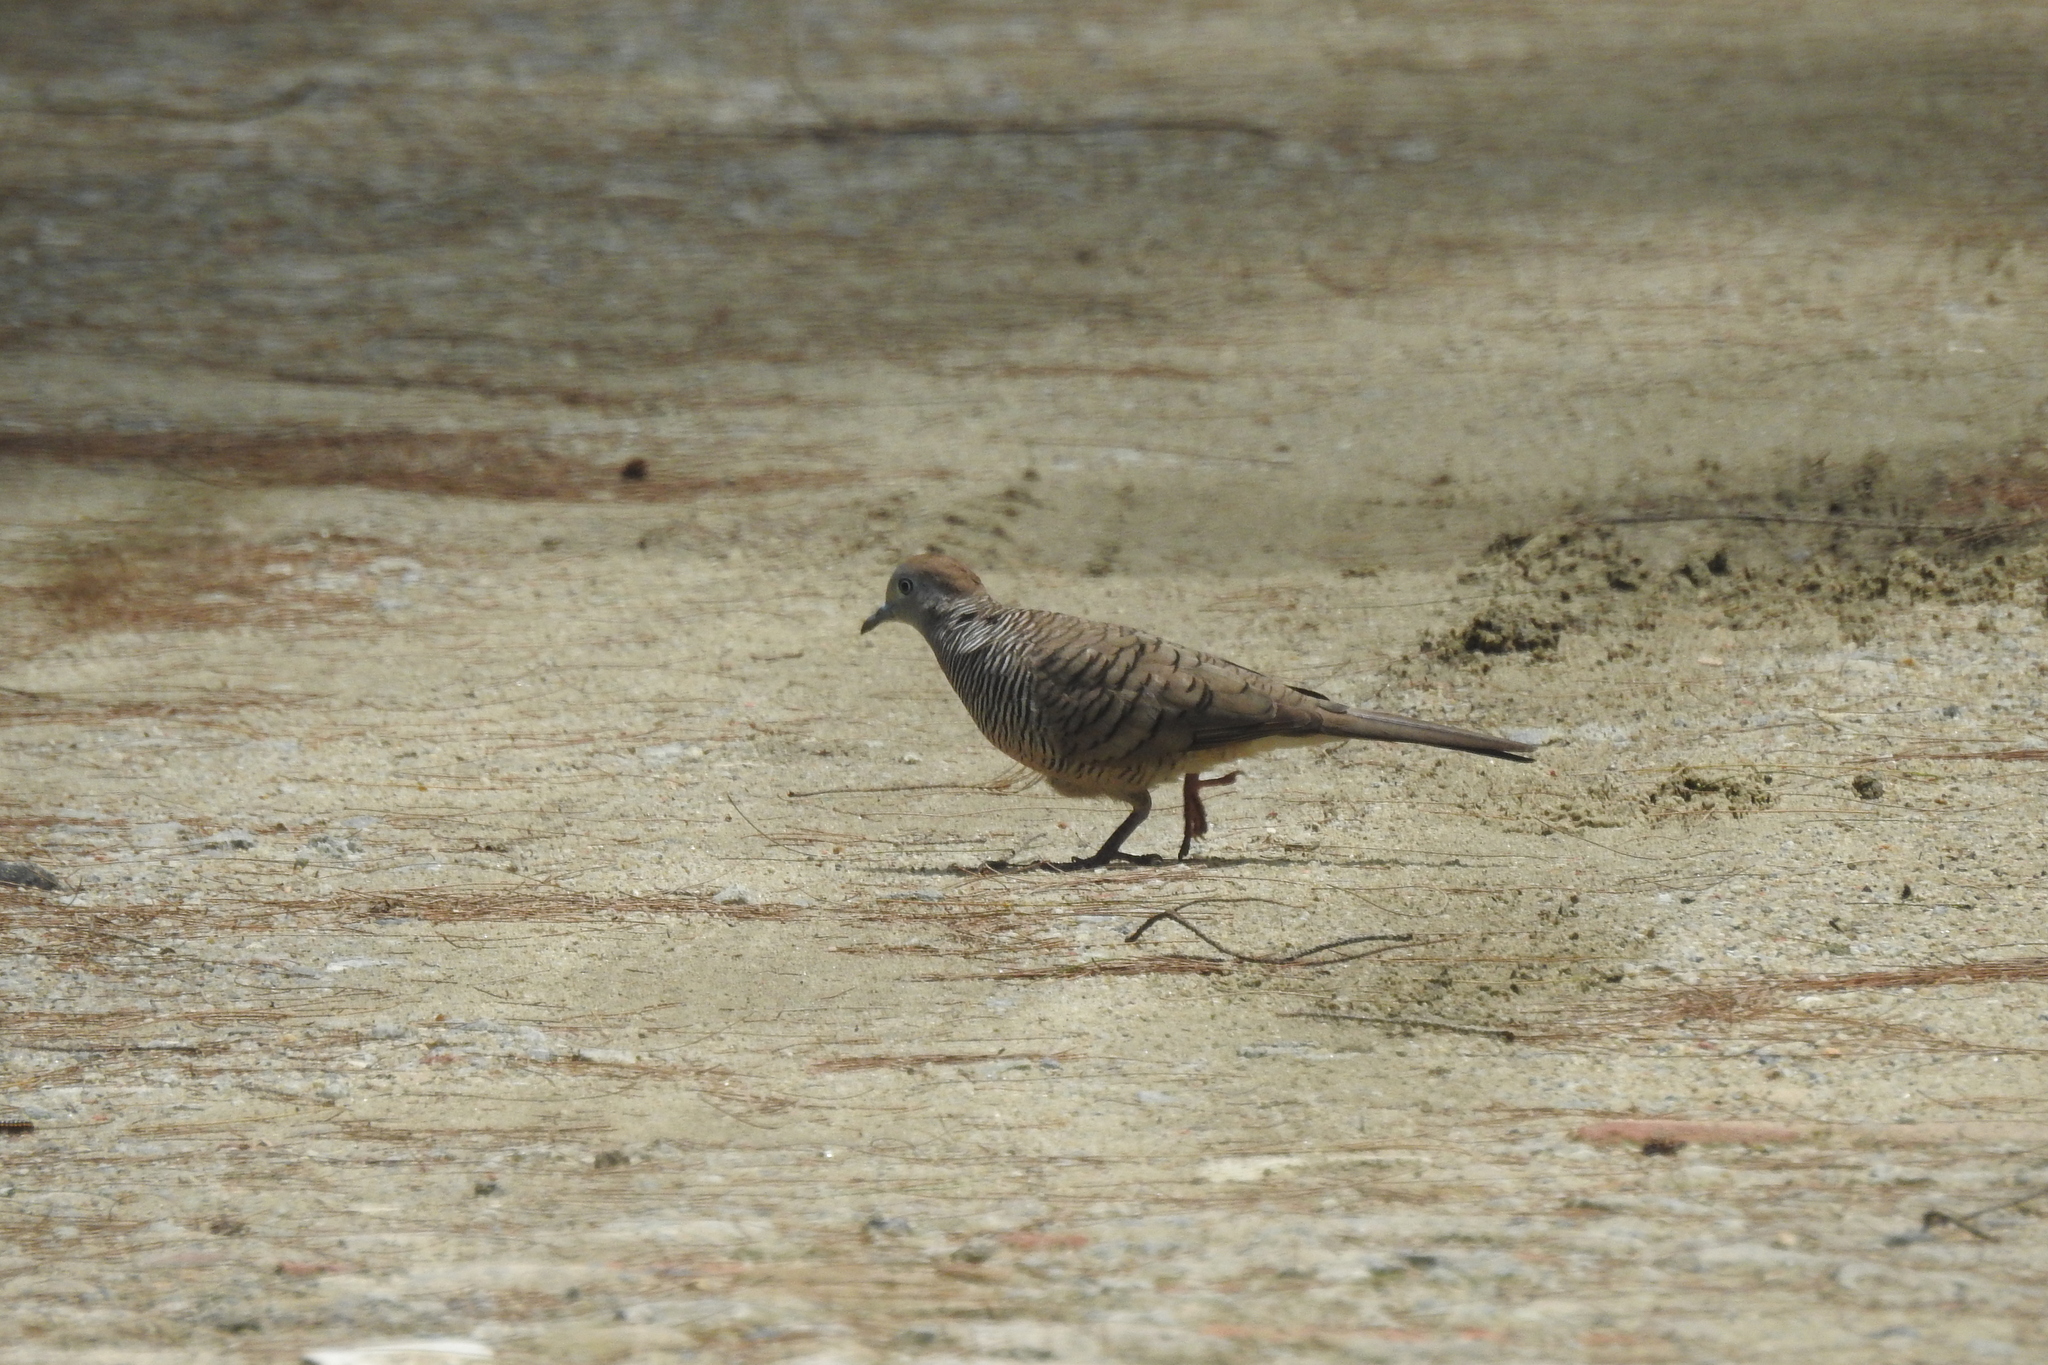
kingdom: Animalia
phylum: Chordata
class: Aves
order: Columbiformes
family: Columbidae
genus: Geopelia
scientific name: Geopelia striata
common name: Zebra dove
